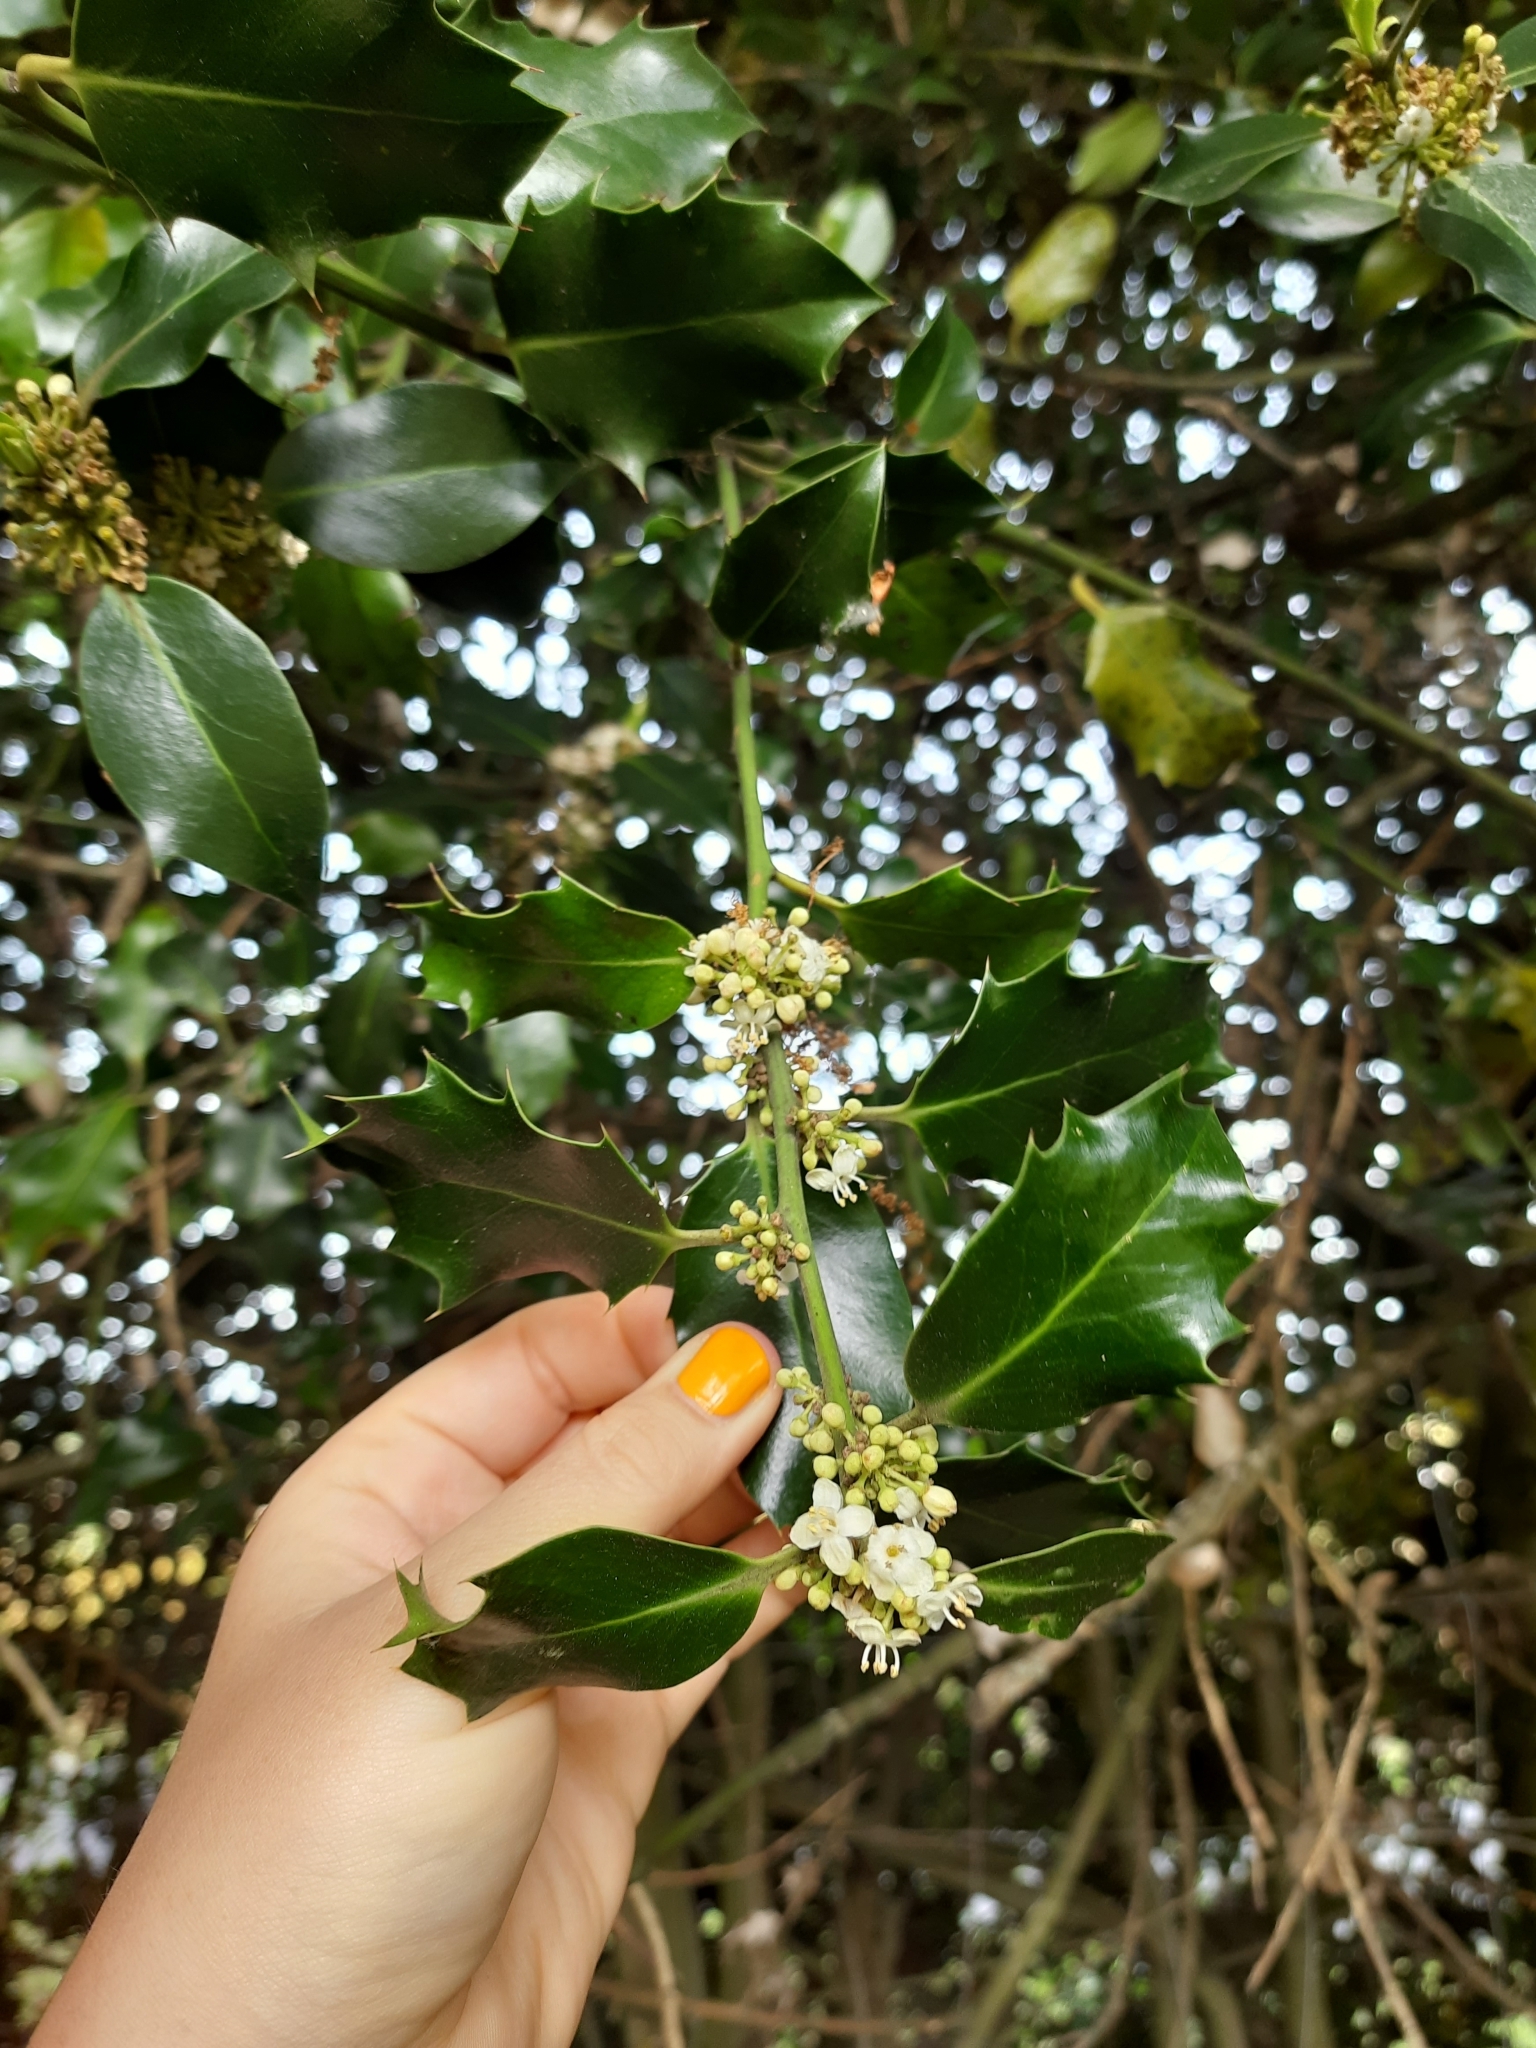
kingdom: Plantae
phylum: Tracheophyta
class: Magnoliopsida
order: Aquifoliales
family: Aquifoliaceae
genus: Ilex
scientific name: Ilex aquifolium
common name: English holly
